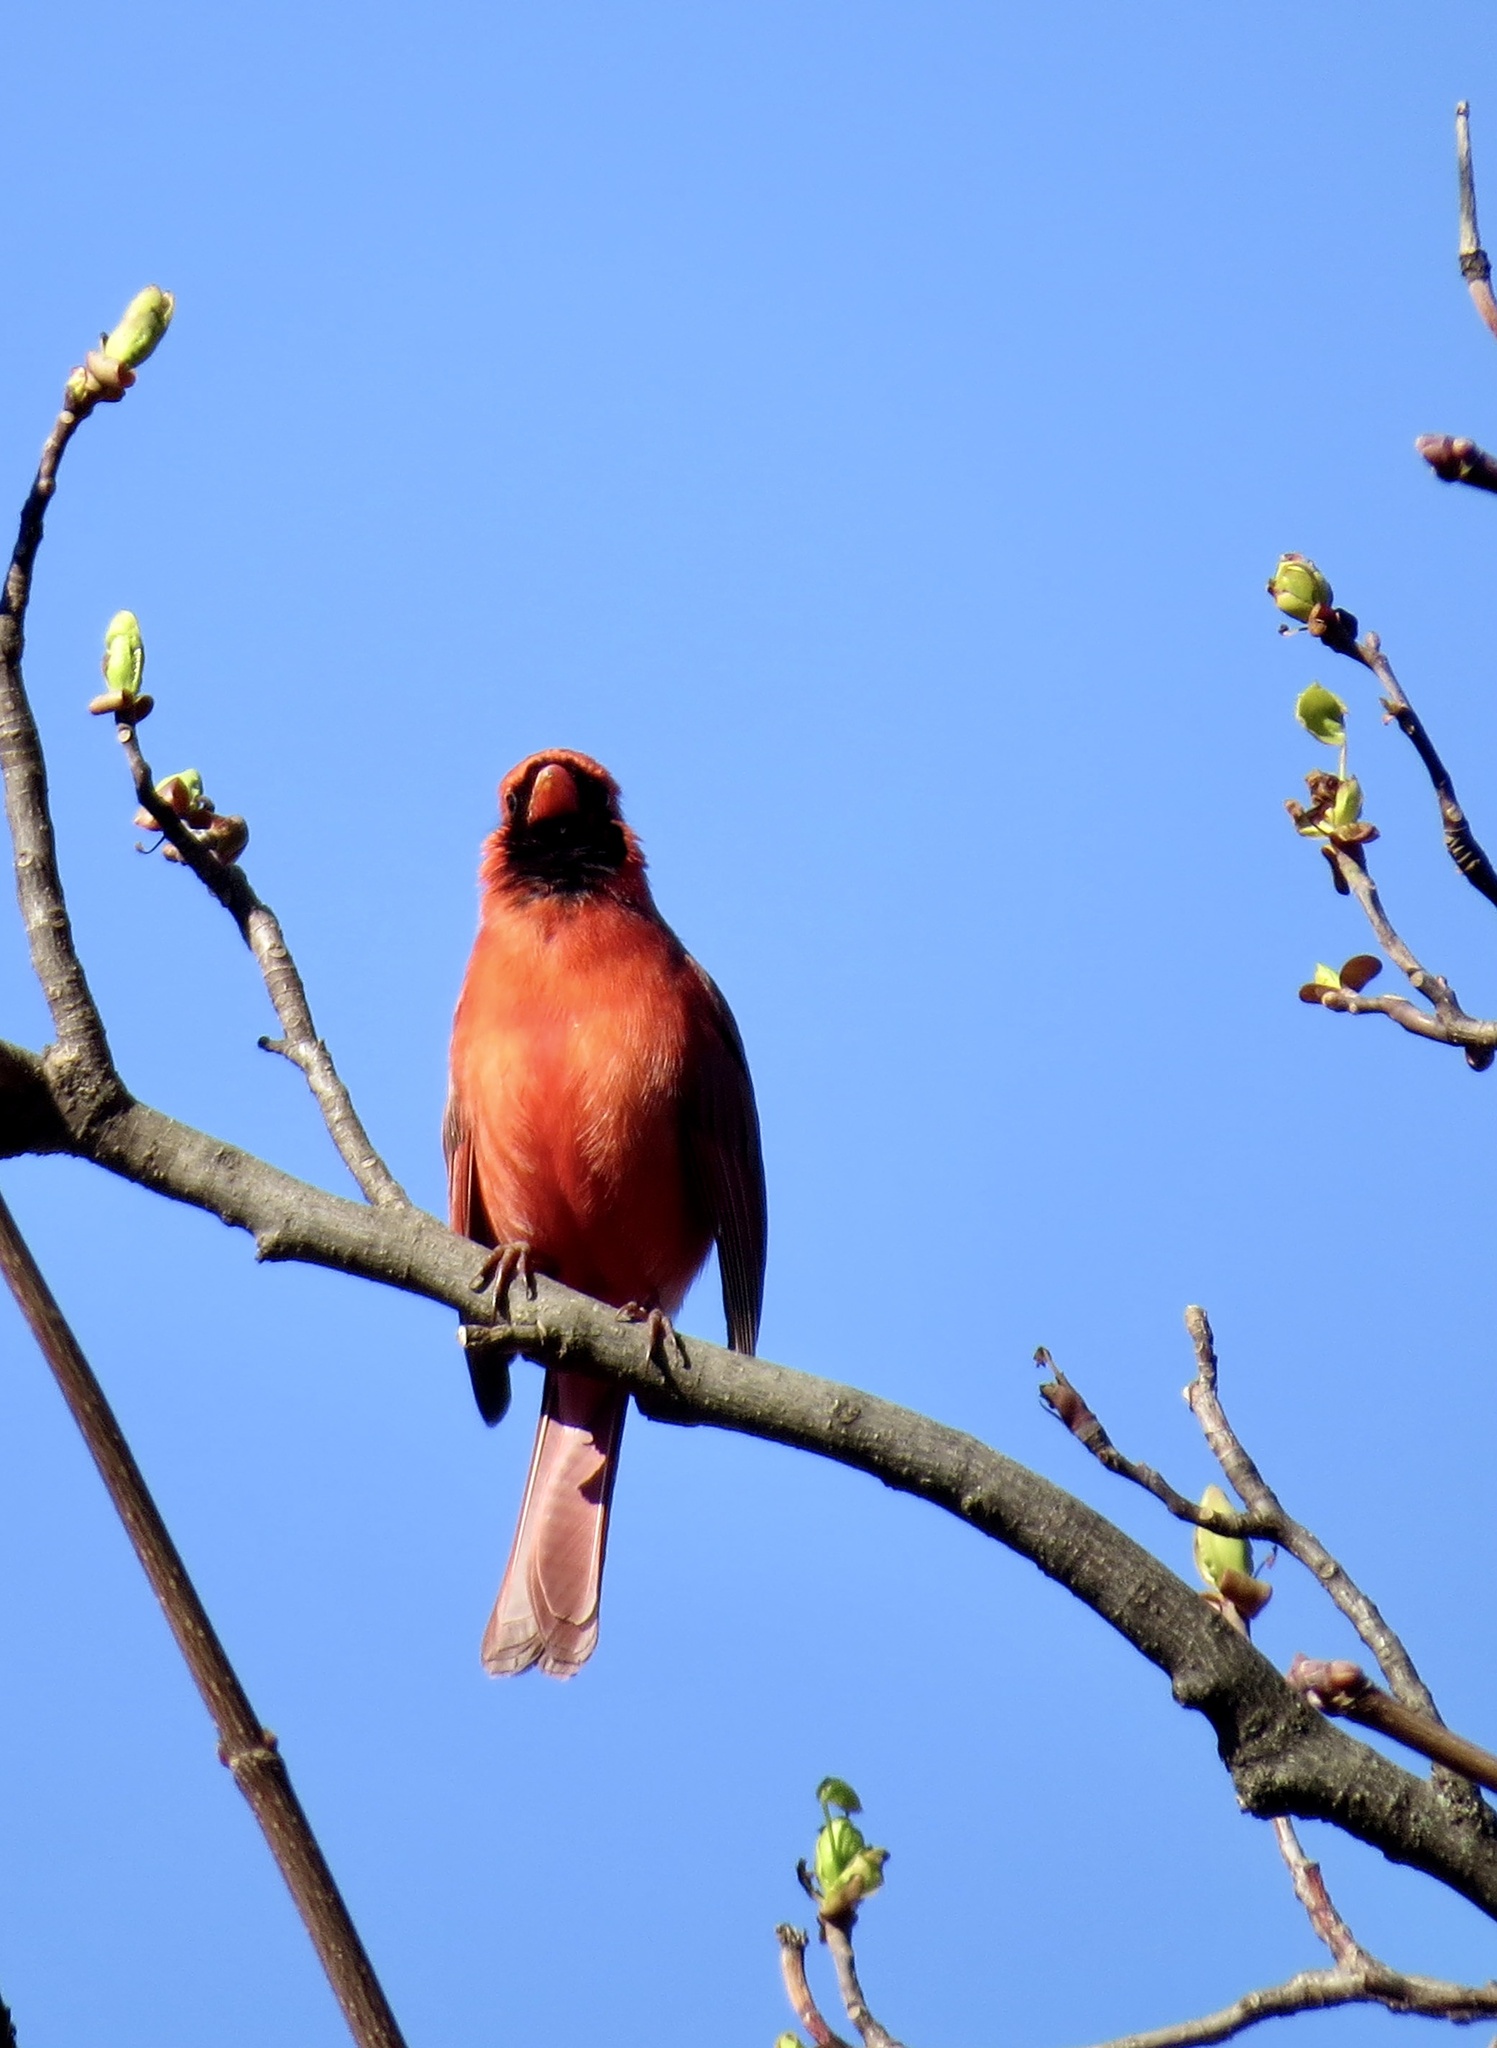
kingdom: Animalia
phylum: Chordata
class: Aves
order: Passeriformes
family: Cardinalidae
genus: Cardinalis
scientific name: Cardinalis cardinalis
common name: Northern cardinal
